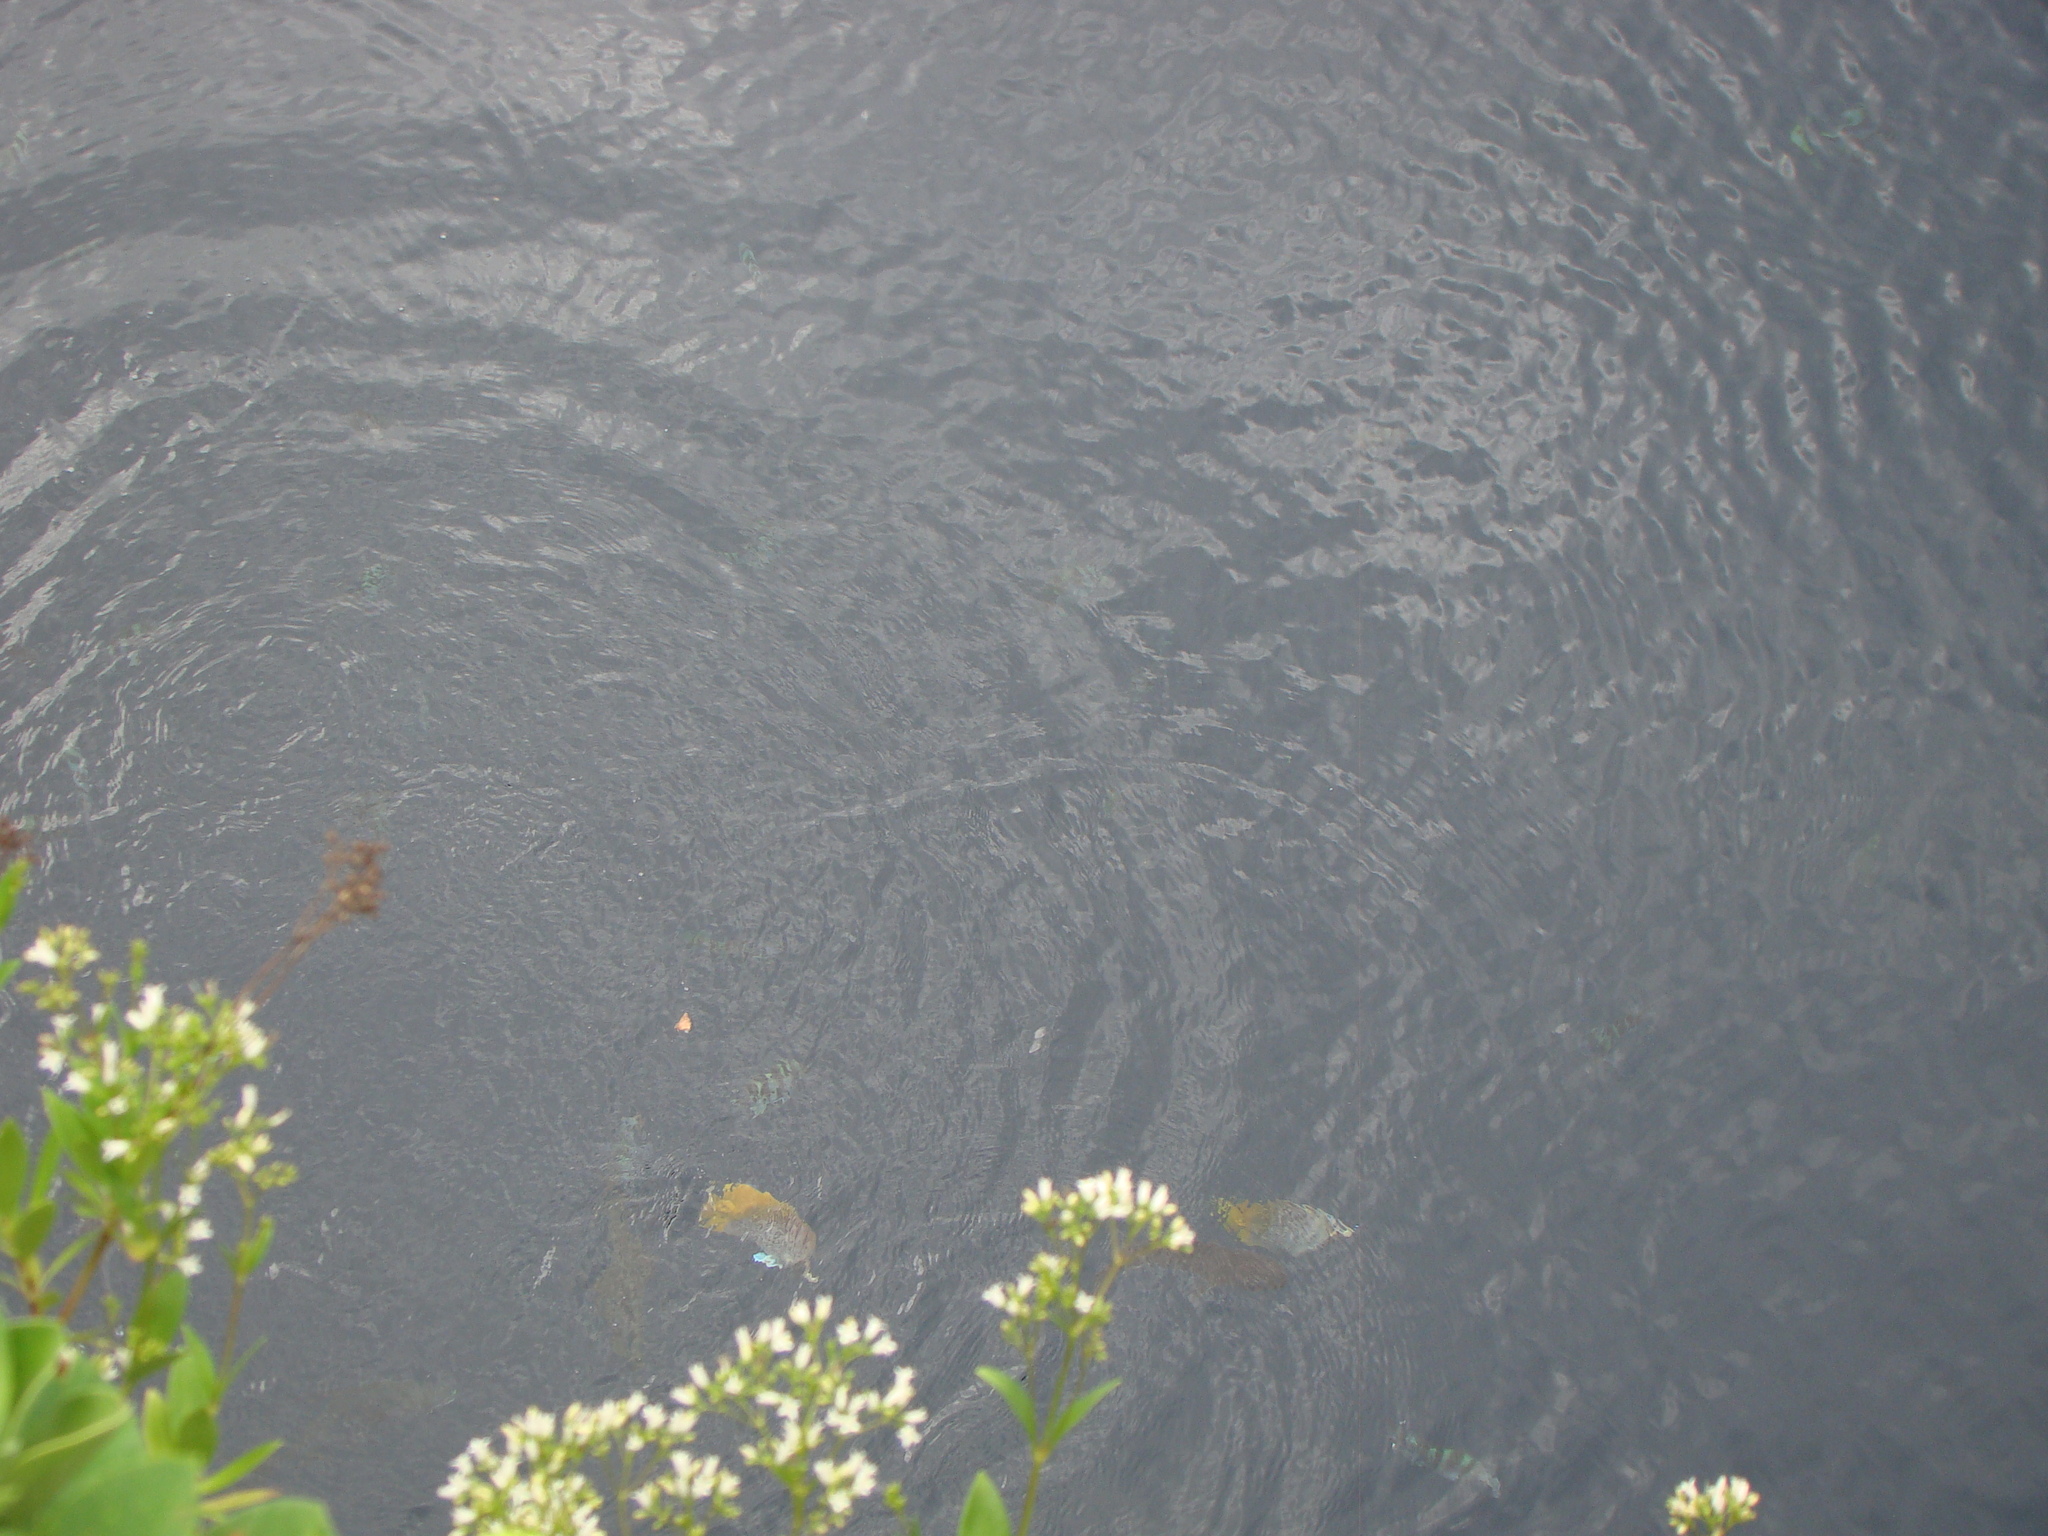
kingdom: Animalia
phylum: Chordata
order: Perciformes
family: Chaetodontidae
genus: Chaetodon
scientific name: Chaetodon auriga
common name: Threadfin butterflyfish
